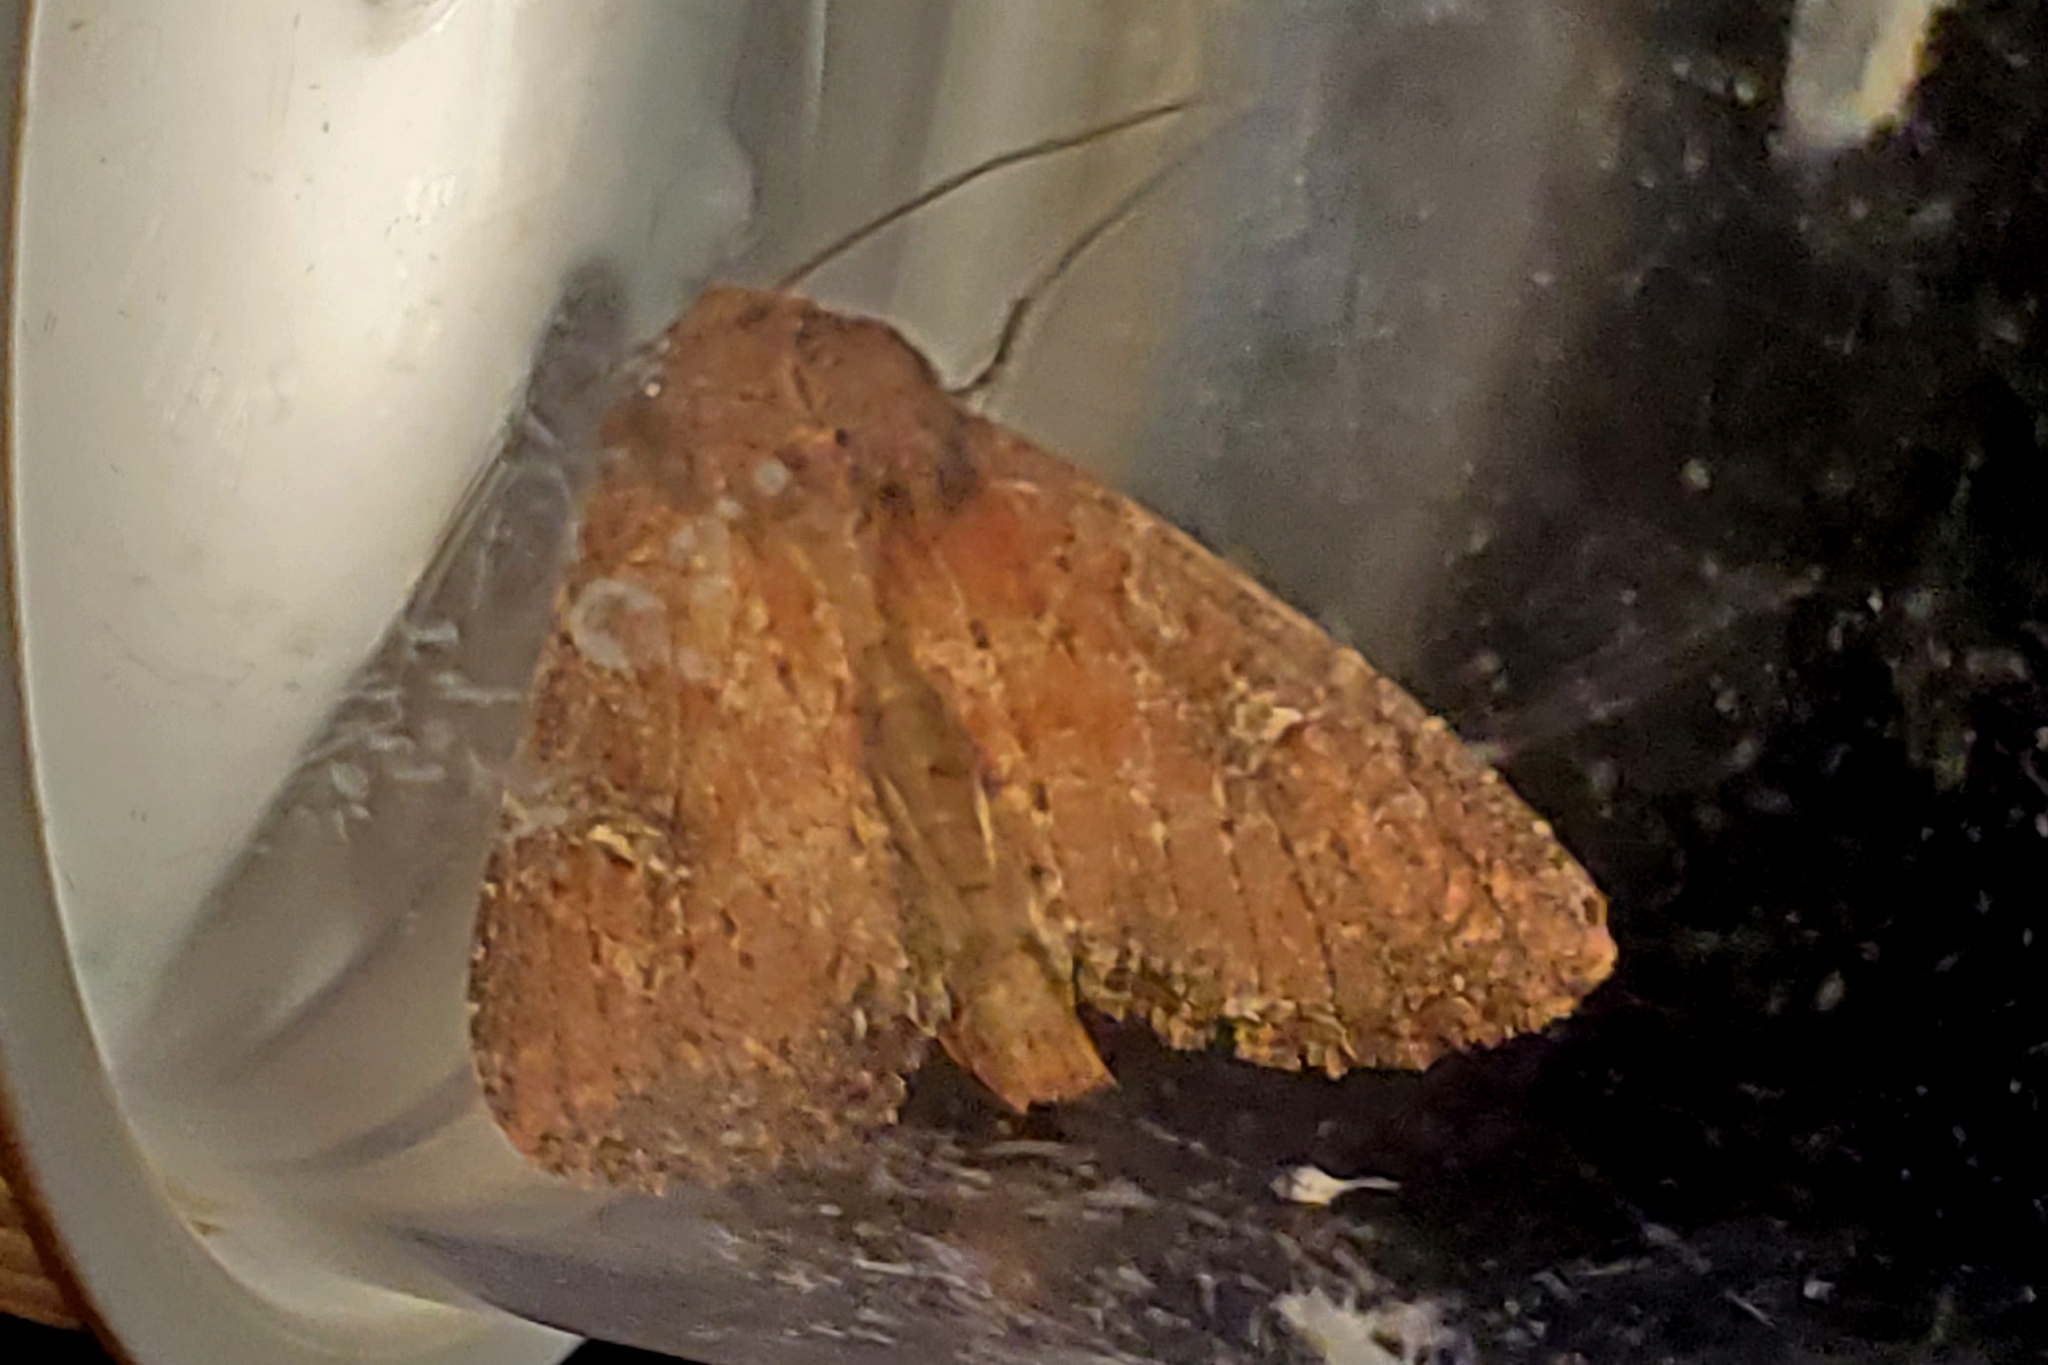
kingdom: Animalia
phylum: Arthropoda
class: Insecta
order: Lepidoptera
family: Noctuidae
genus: Apamea
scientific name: Apamea scoparia
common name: Faint-spotted quaker
